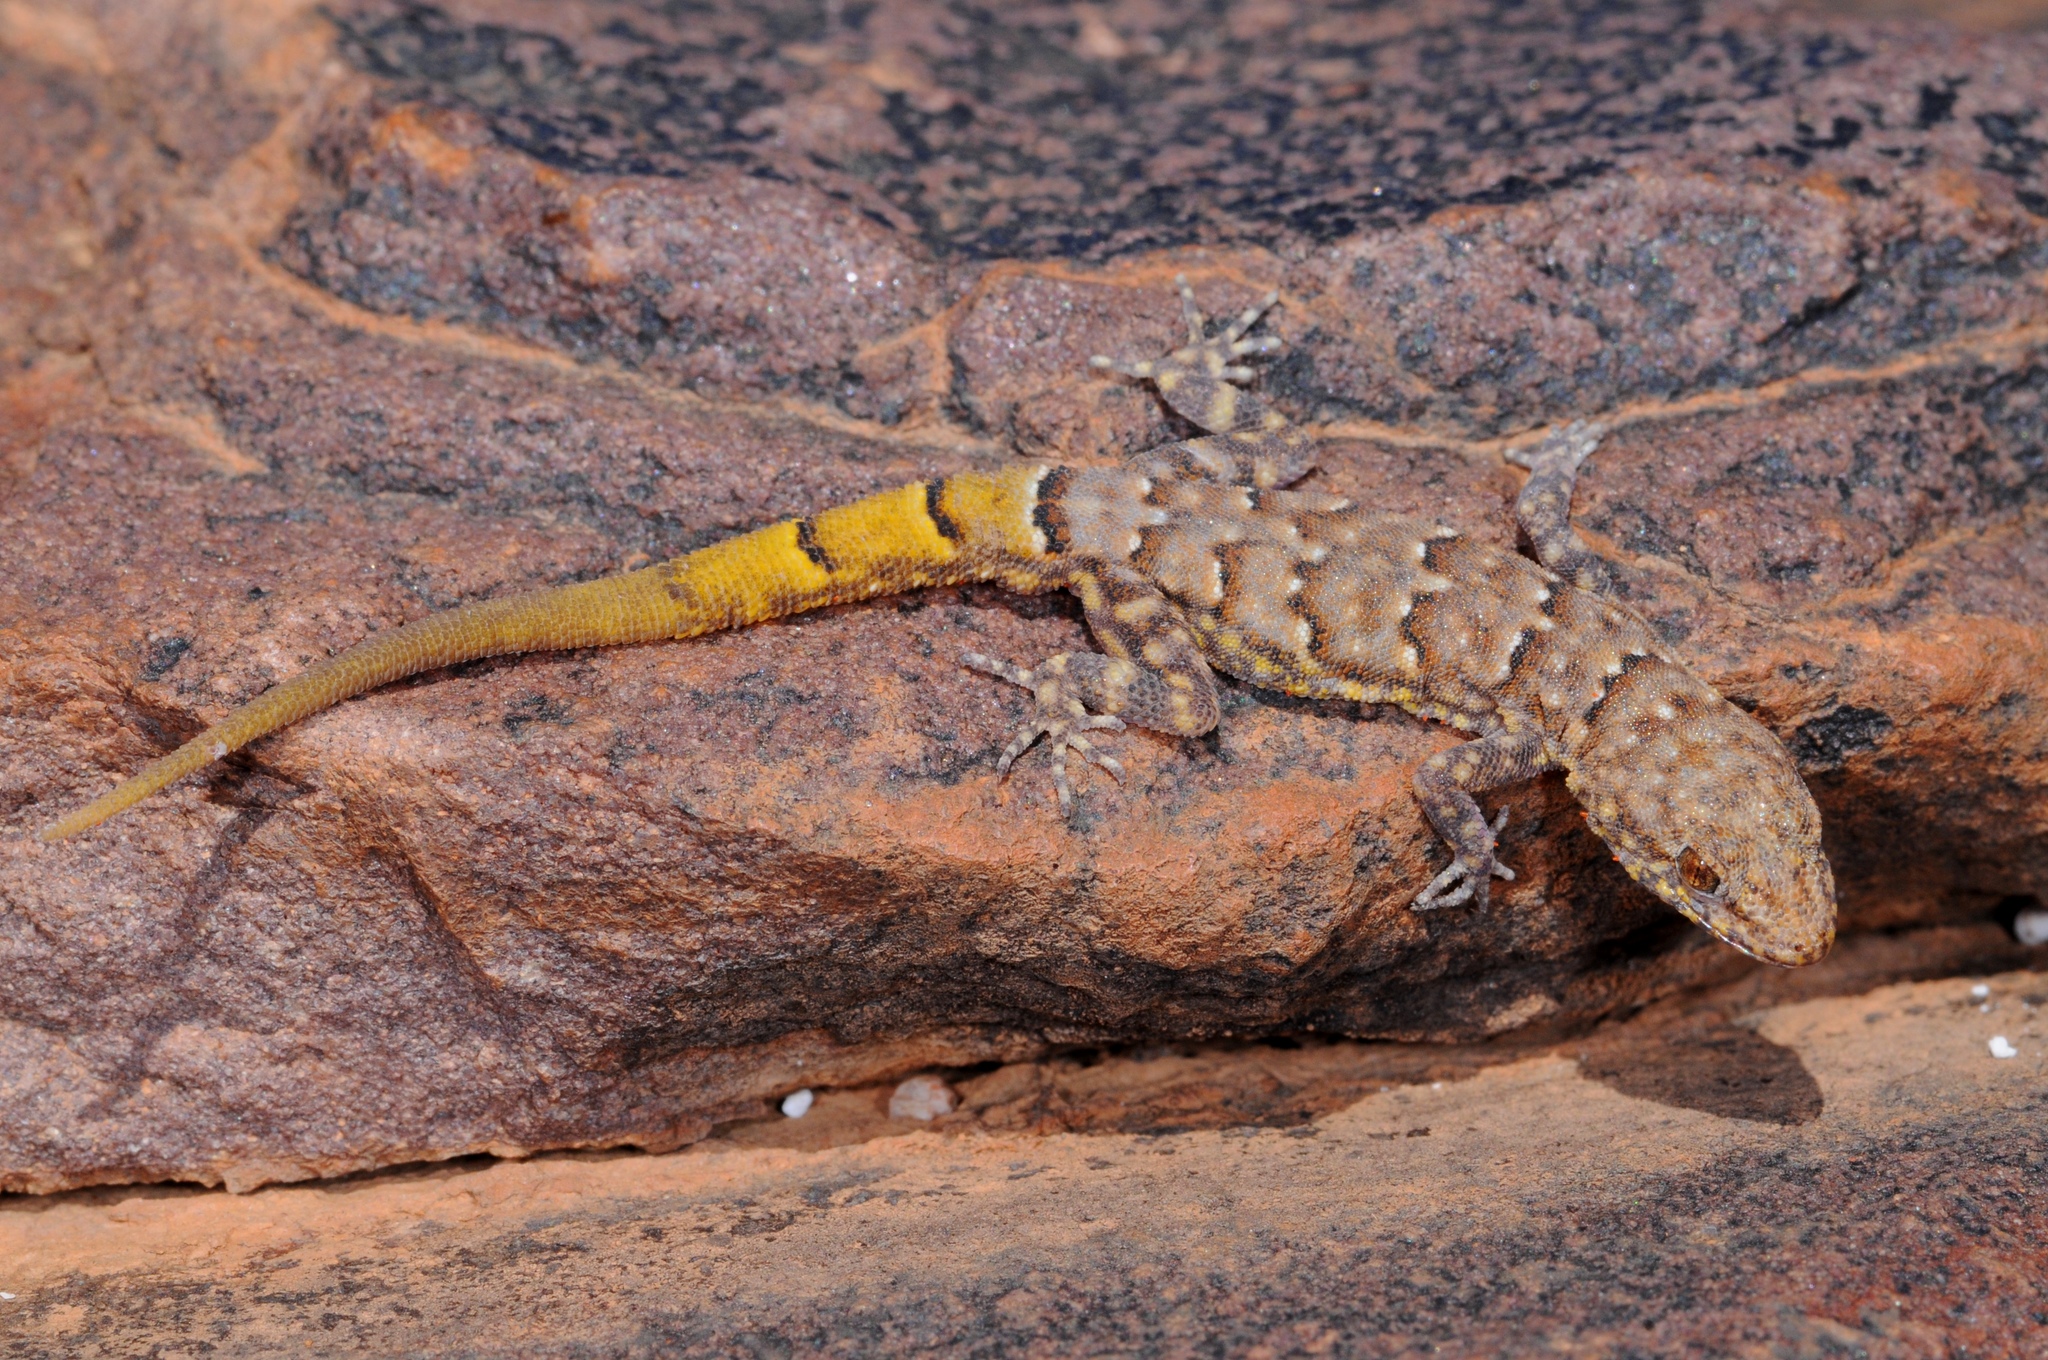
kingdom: Animalia
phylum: Chordata
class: Squamata
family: Gekkonidae
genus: Narudasia
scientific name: Narudasia festiva
